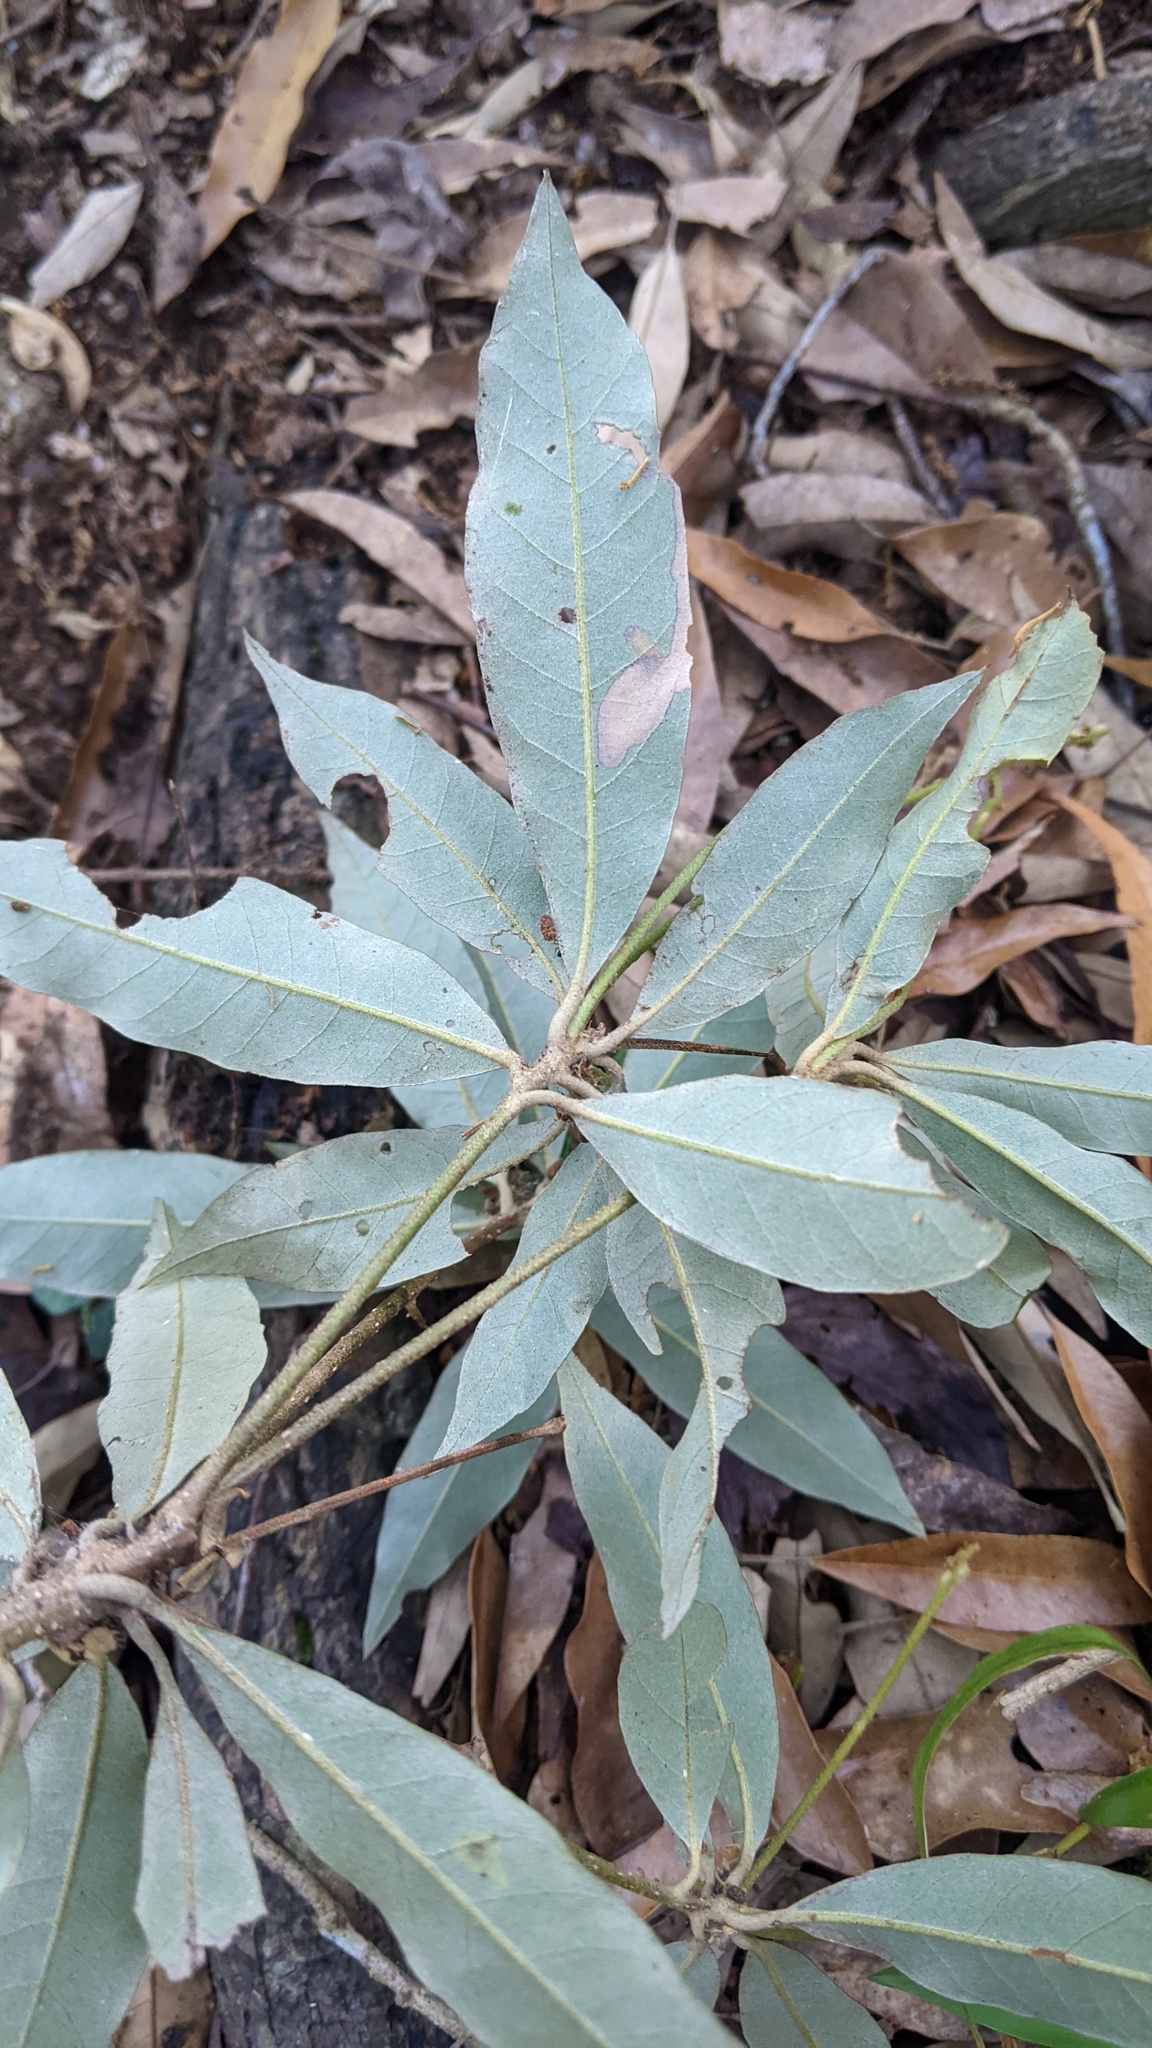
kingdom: Plantae
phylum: Tracheophyta
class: Magnoliopsida
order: Fagales
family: Fagaceae
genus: Quercus
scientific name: Quercus hypophaea
